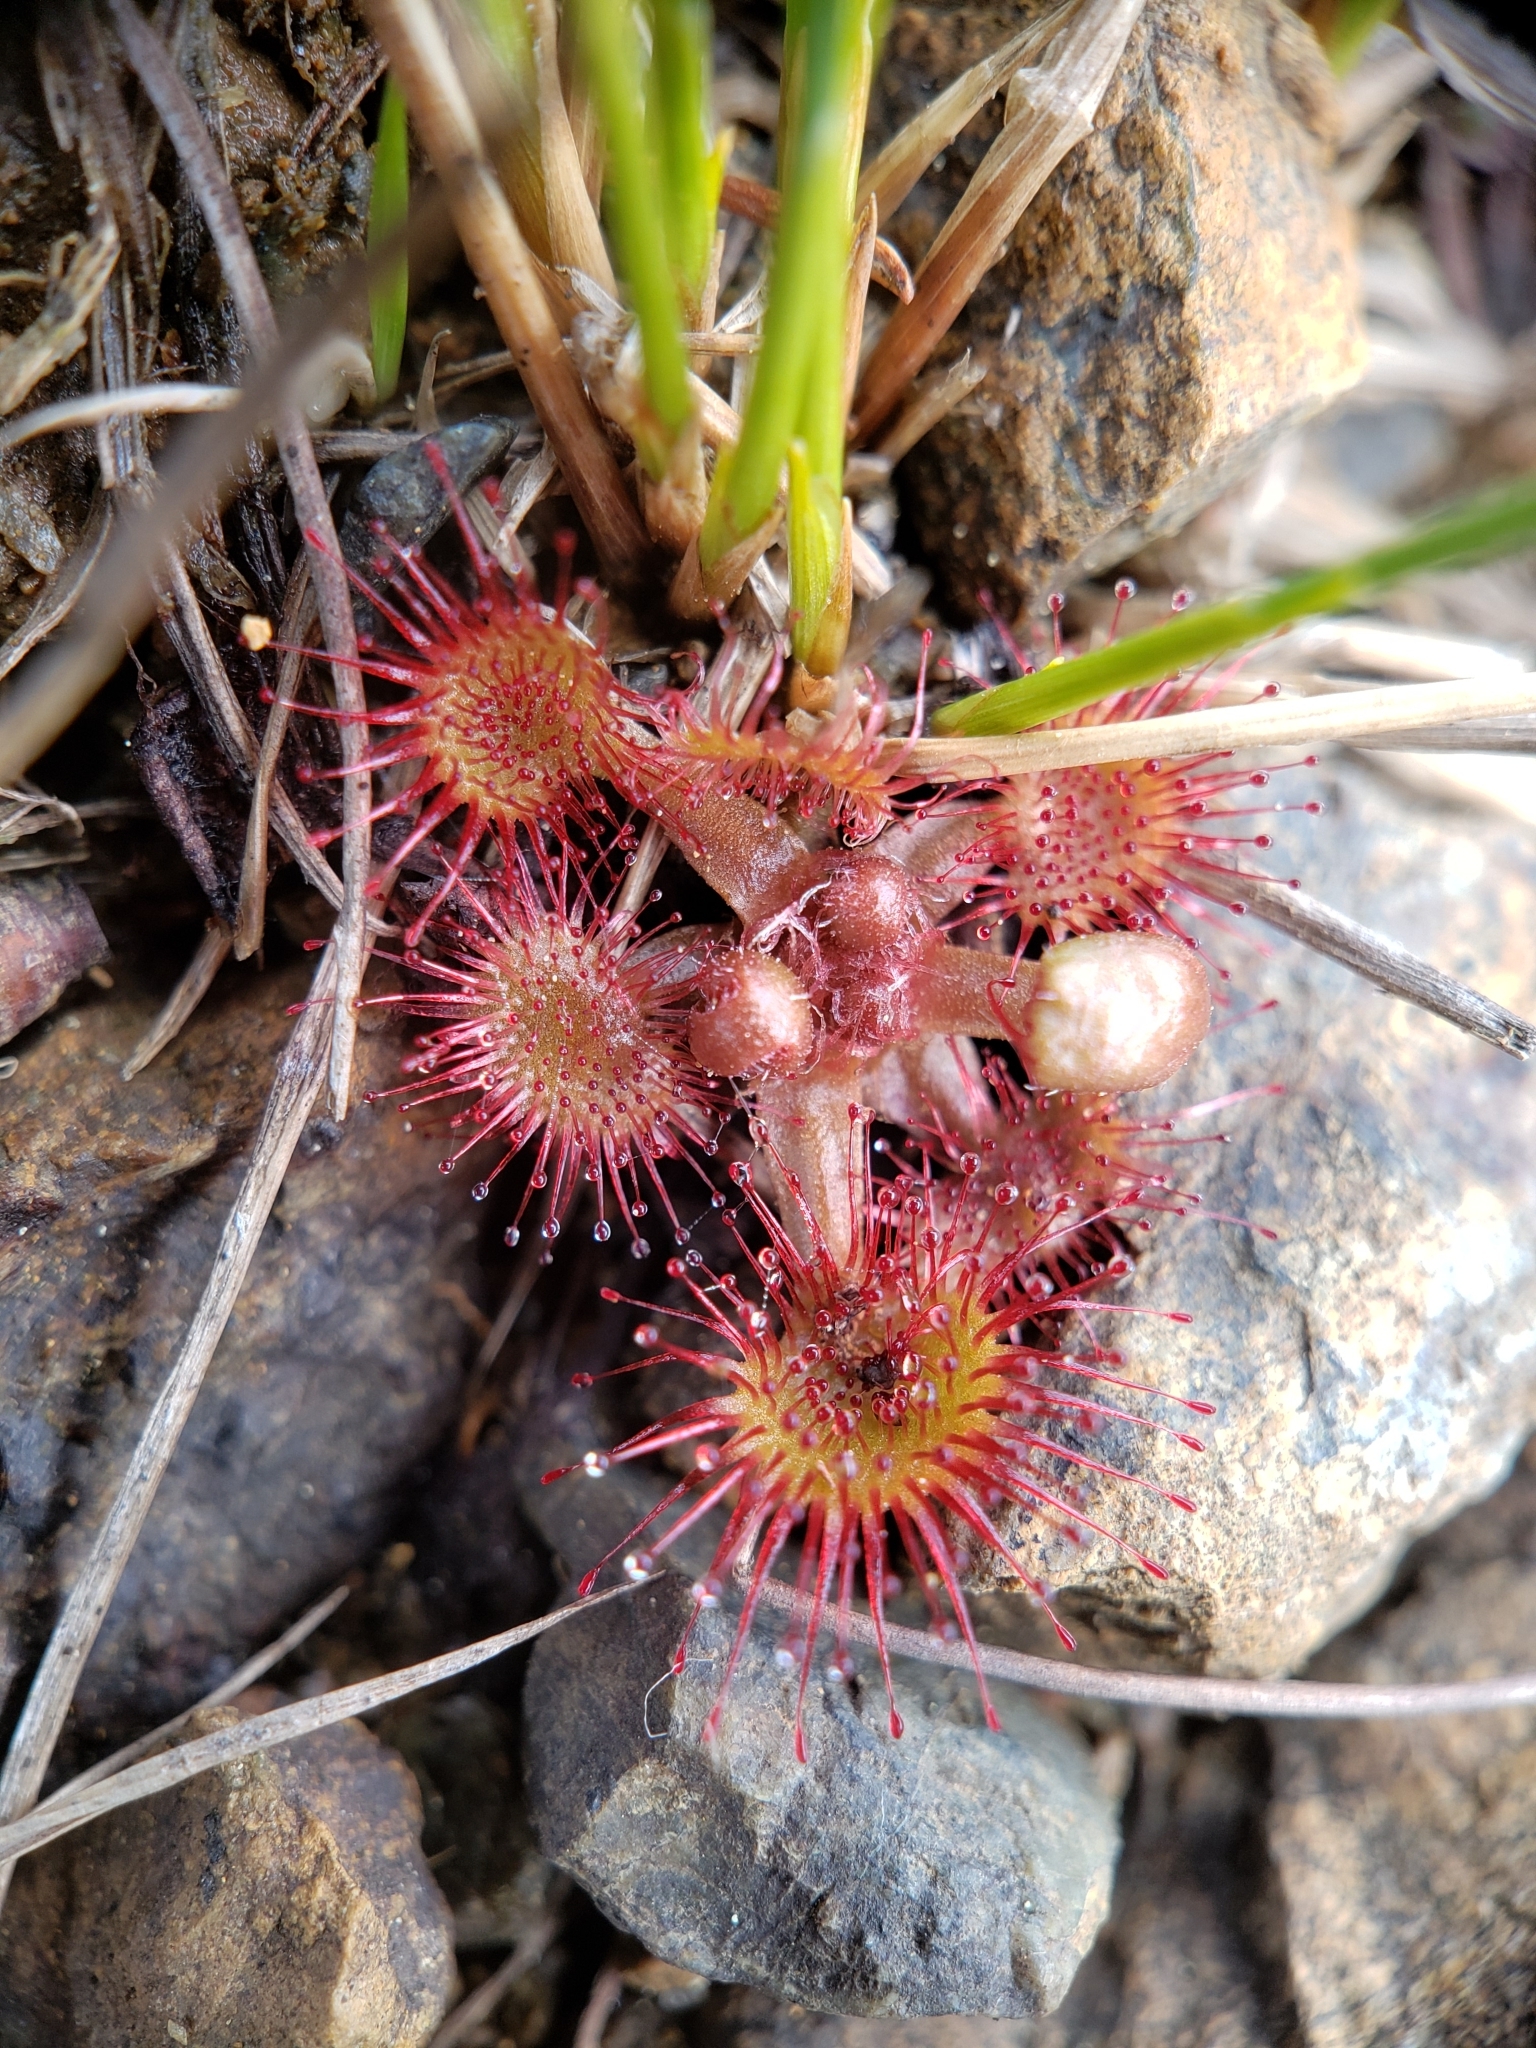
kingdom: Plantae
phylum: Tracheophyta
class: Magnoliopsida
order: Caryophyllales
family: Droseraceae
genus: Drosera
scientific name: Drosera rotundifolia
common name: Round-leaved sundew
